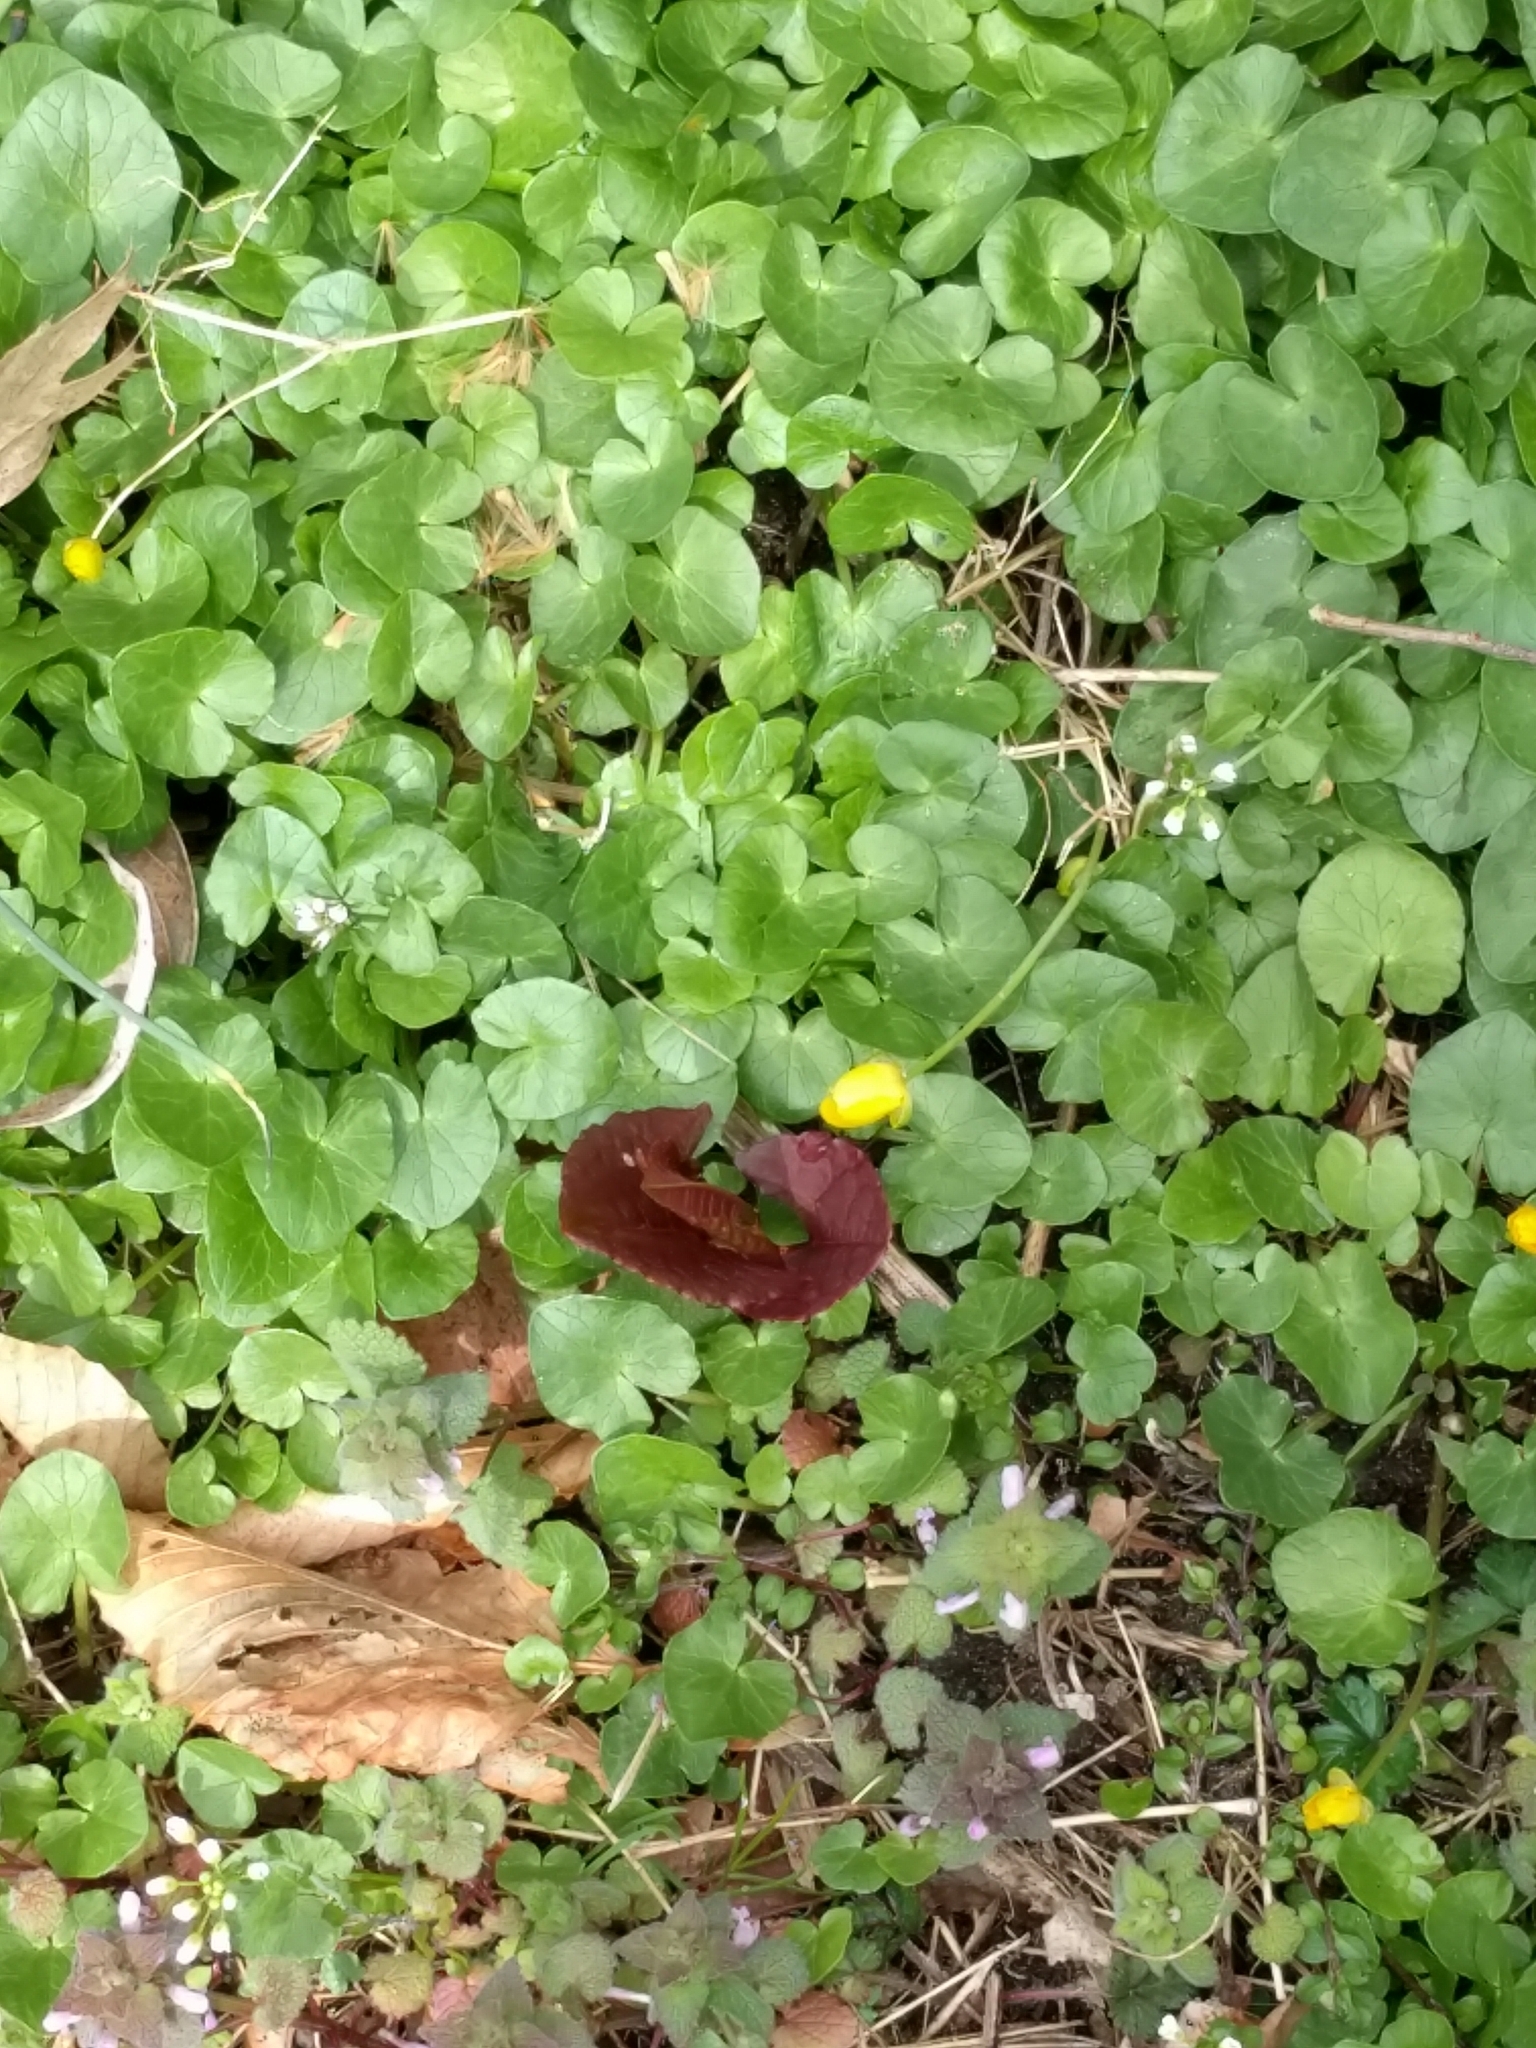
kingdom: Plantae
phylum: Tracheophyta
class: Magnoliopsida
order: Ranunculales
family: Ranunculaceae
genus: Ficaria
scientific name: Ficaria verna
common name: Lesser celandine
